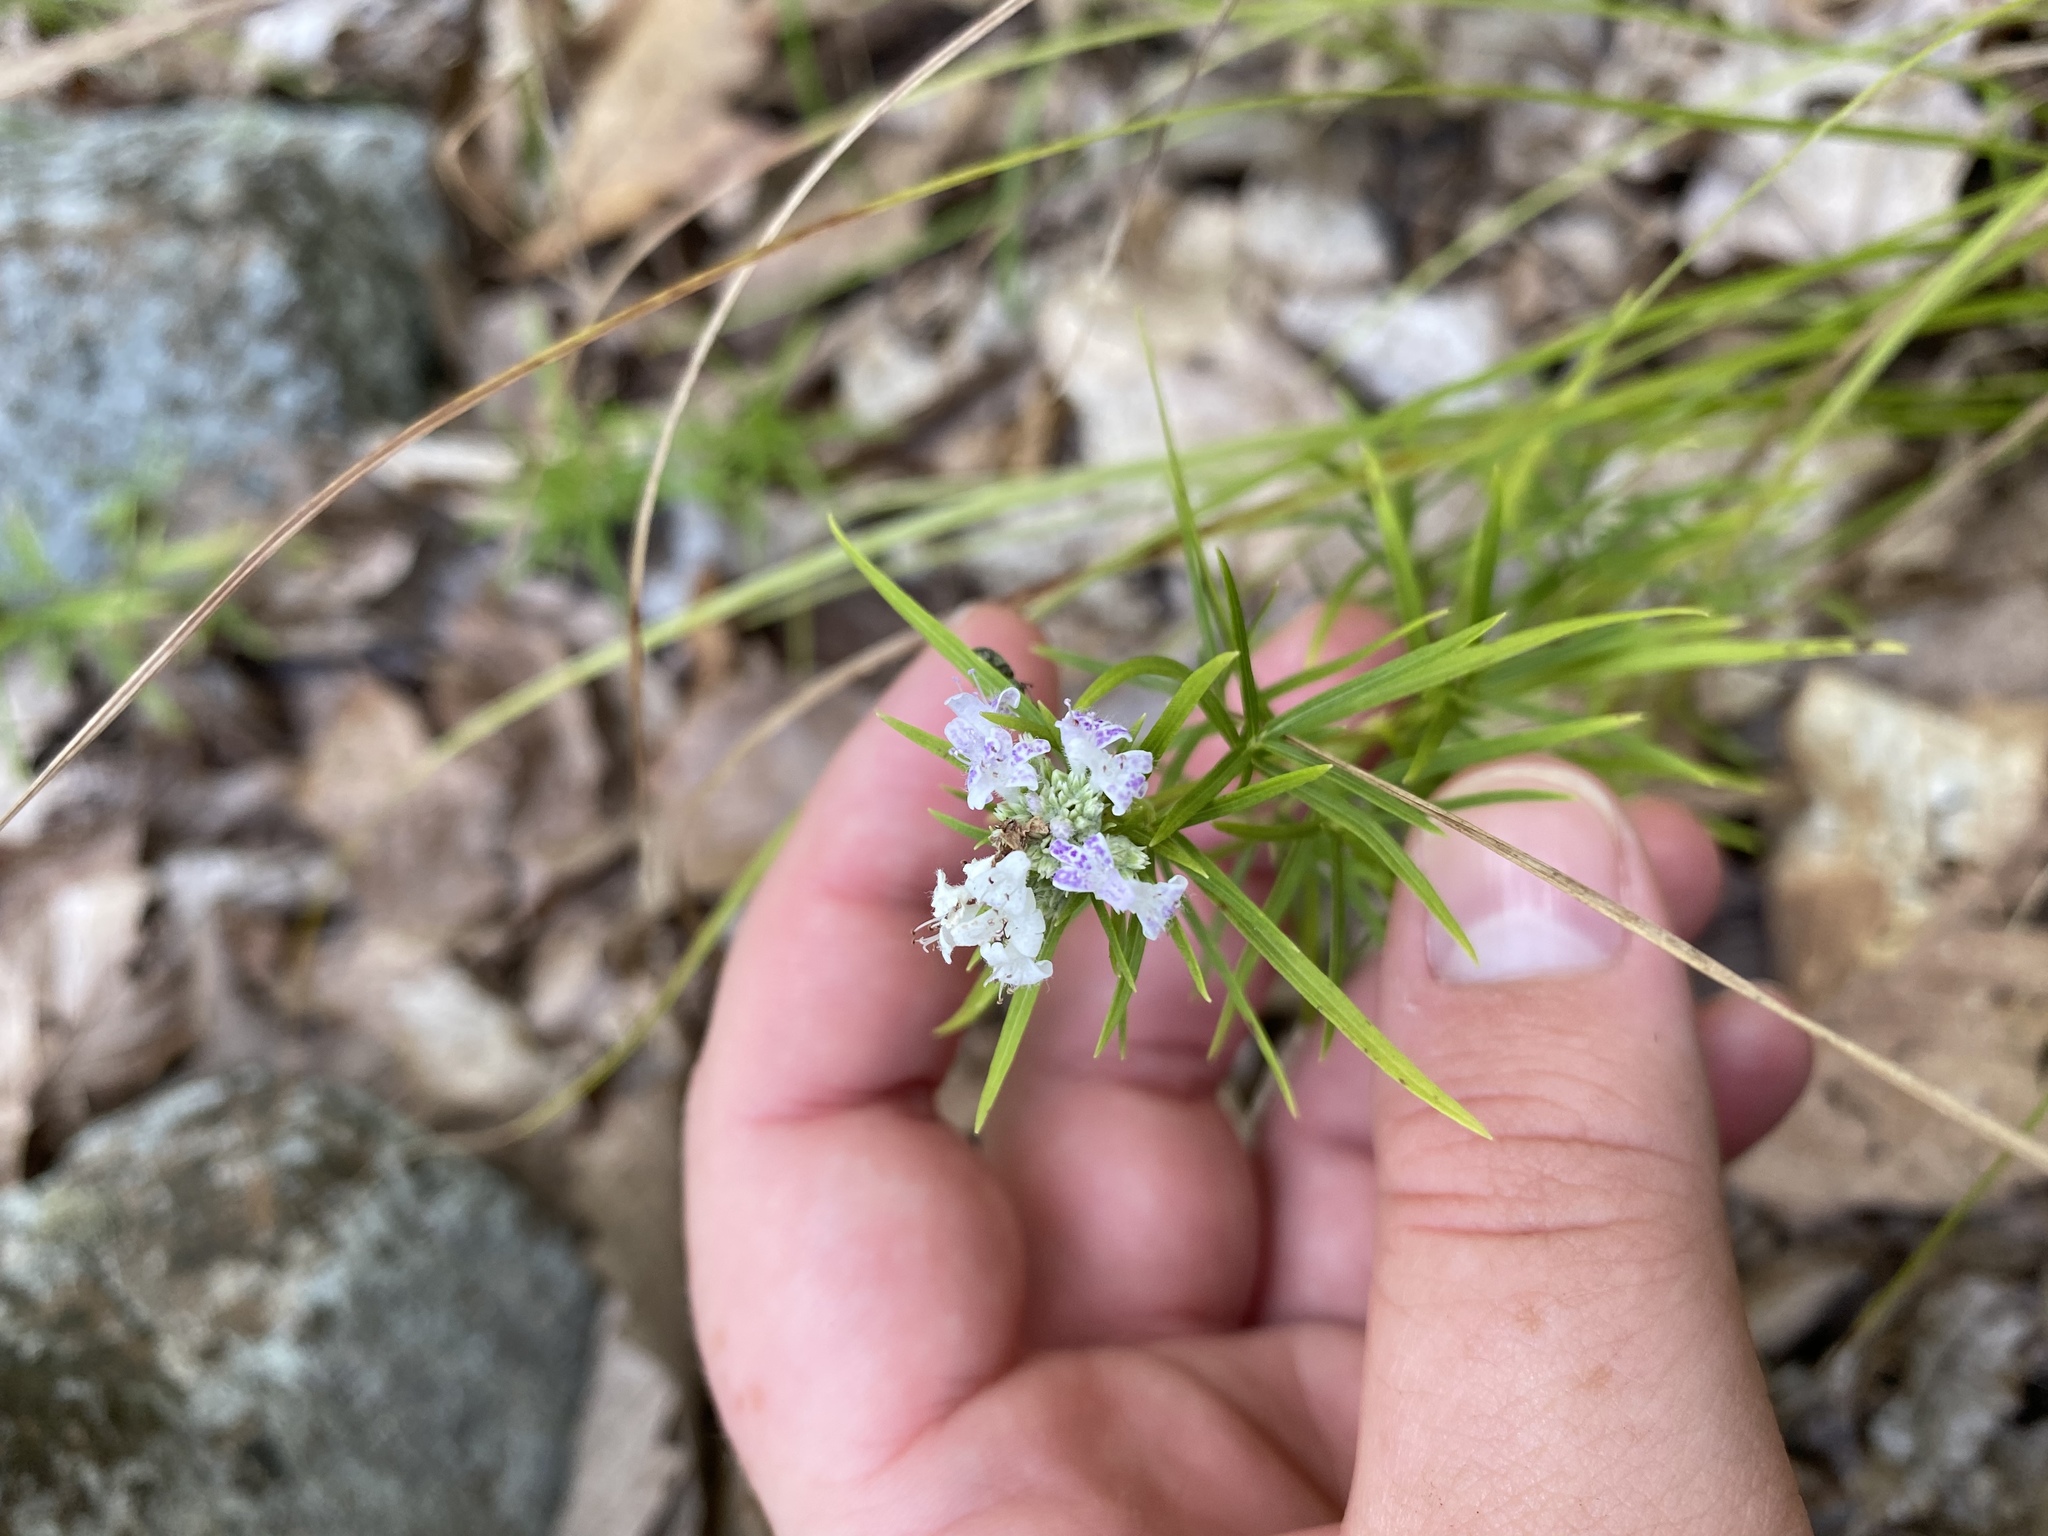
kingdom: Plantae
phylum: Tracheophyta
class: Magnoliopsida
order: Lamiales
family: Lamiaceae
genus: Pycnanthemum
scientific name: Pycnanthemum tenuifolium
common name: Narrow-leaf mountain-mint
